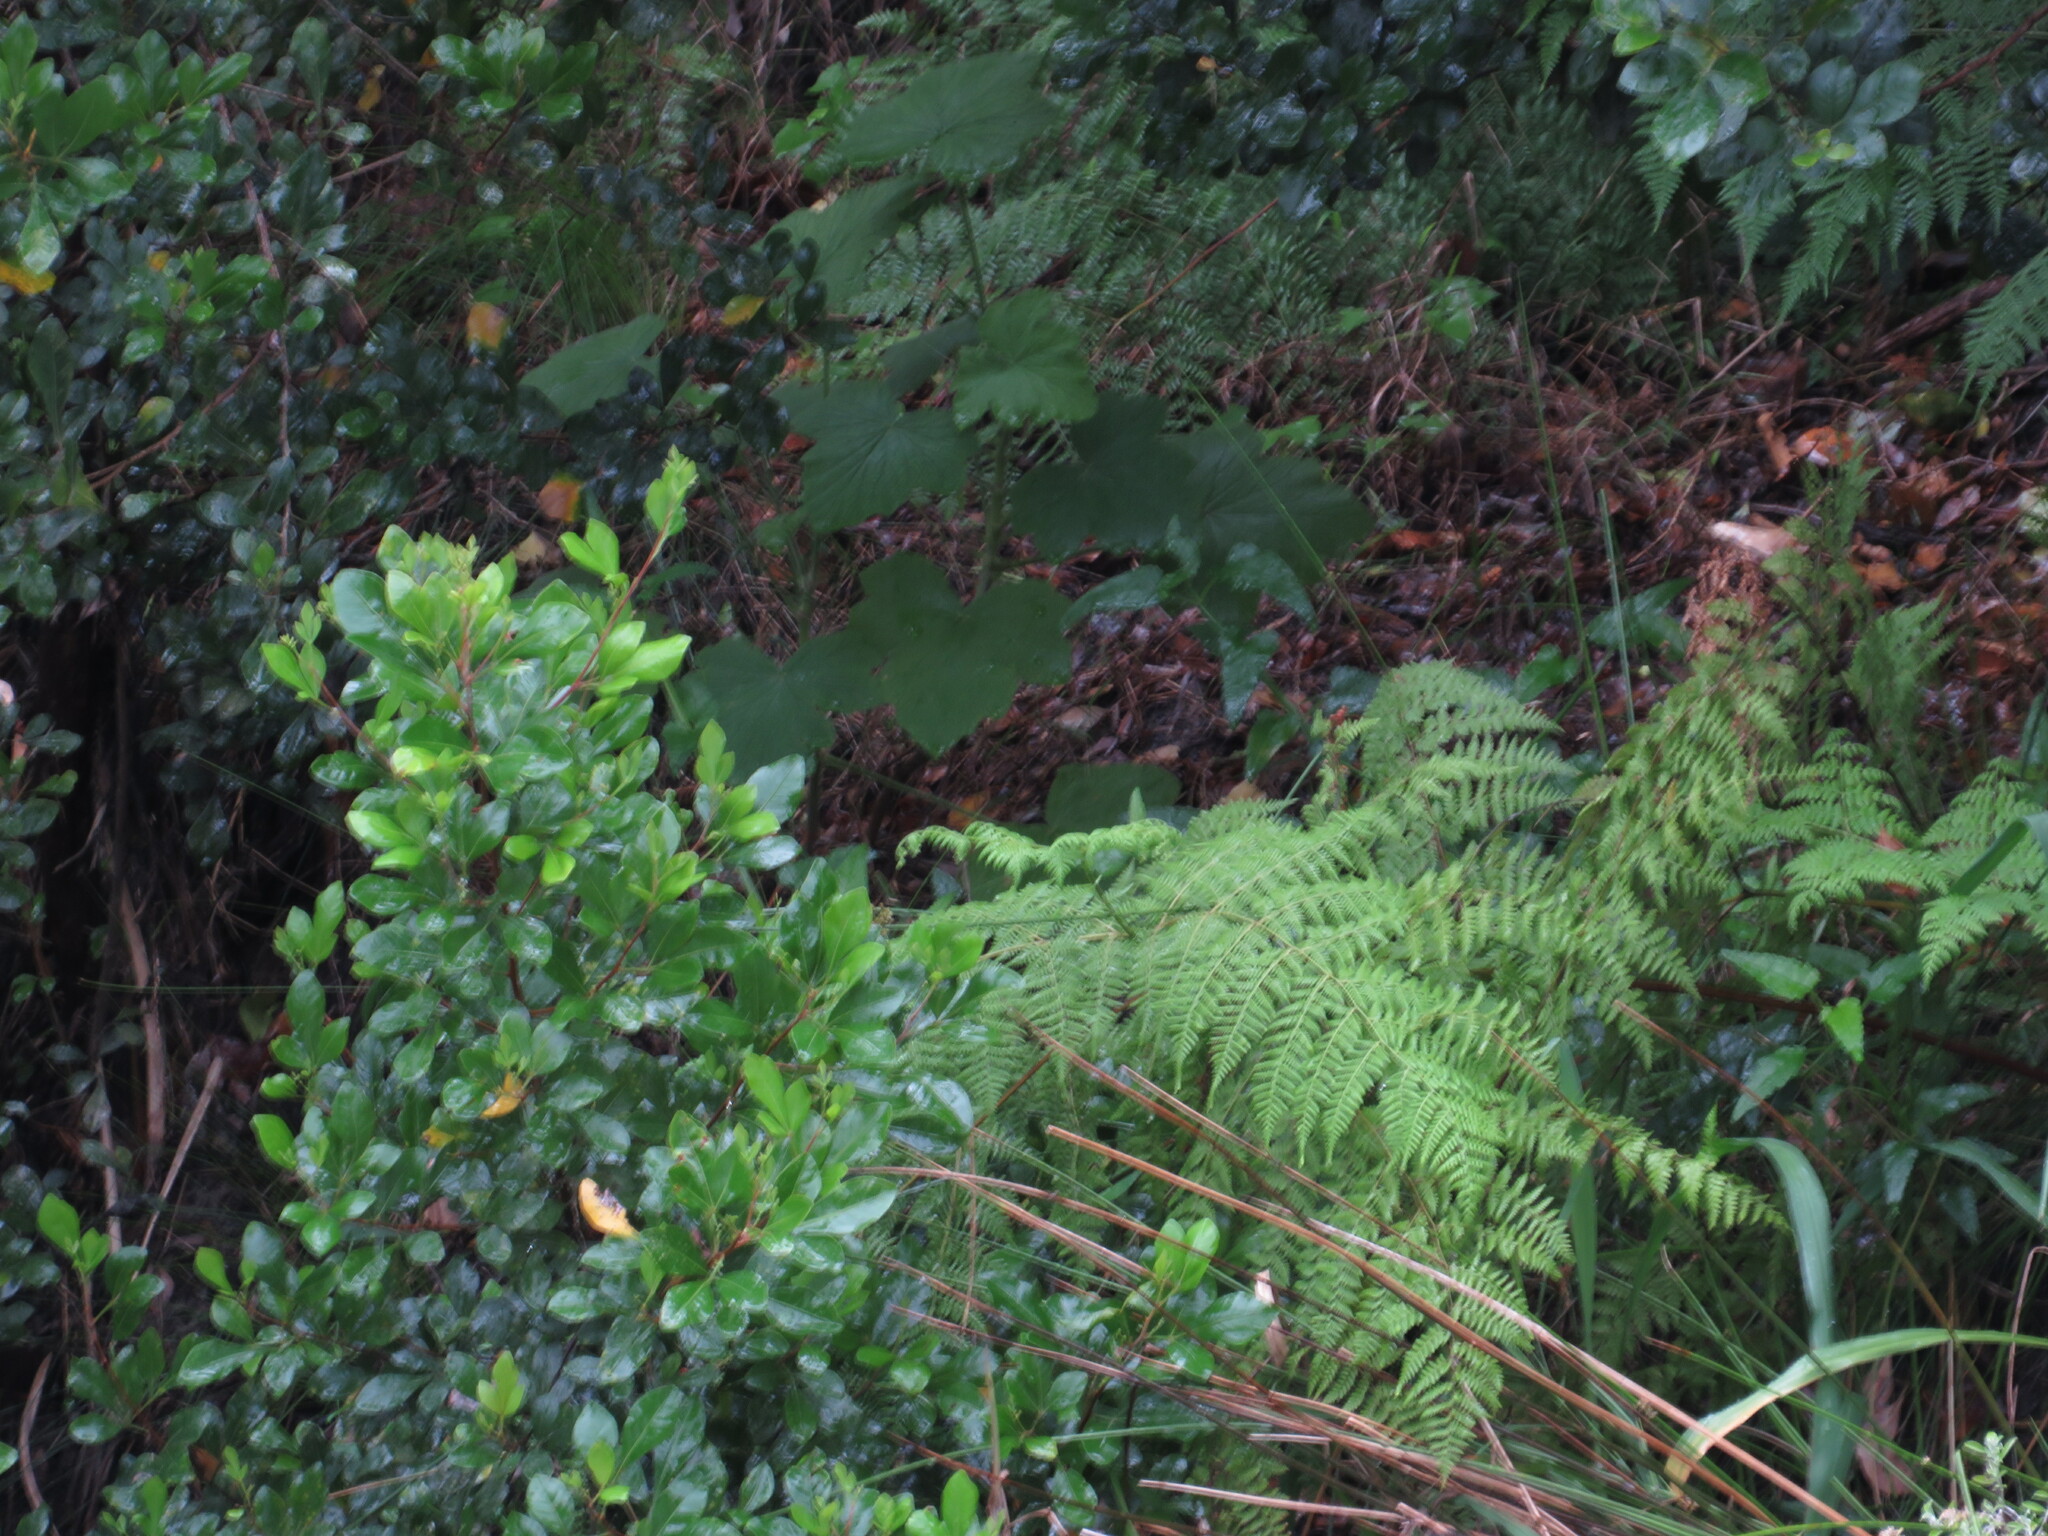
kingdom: Plantae
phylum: Tracheophyta
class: Magnoliopsida
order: Geraniales
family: Geraniaceae
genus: Pelargonium
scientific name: Pelargonium papilionaceum
